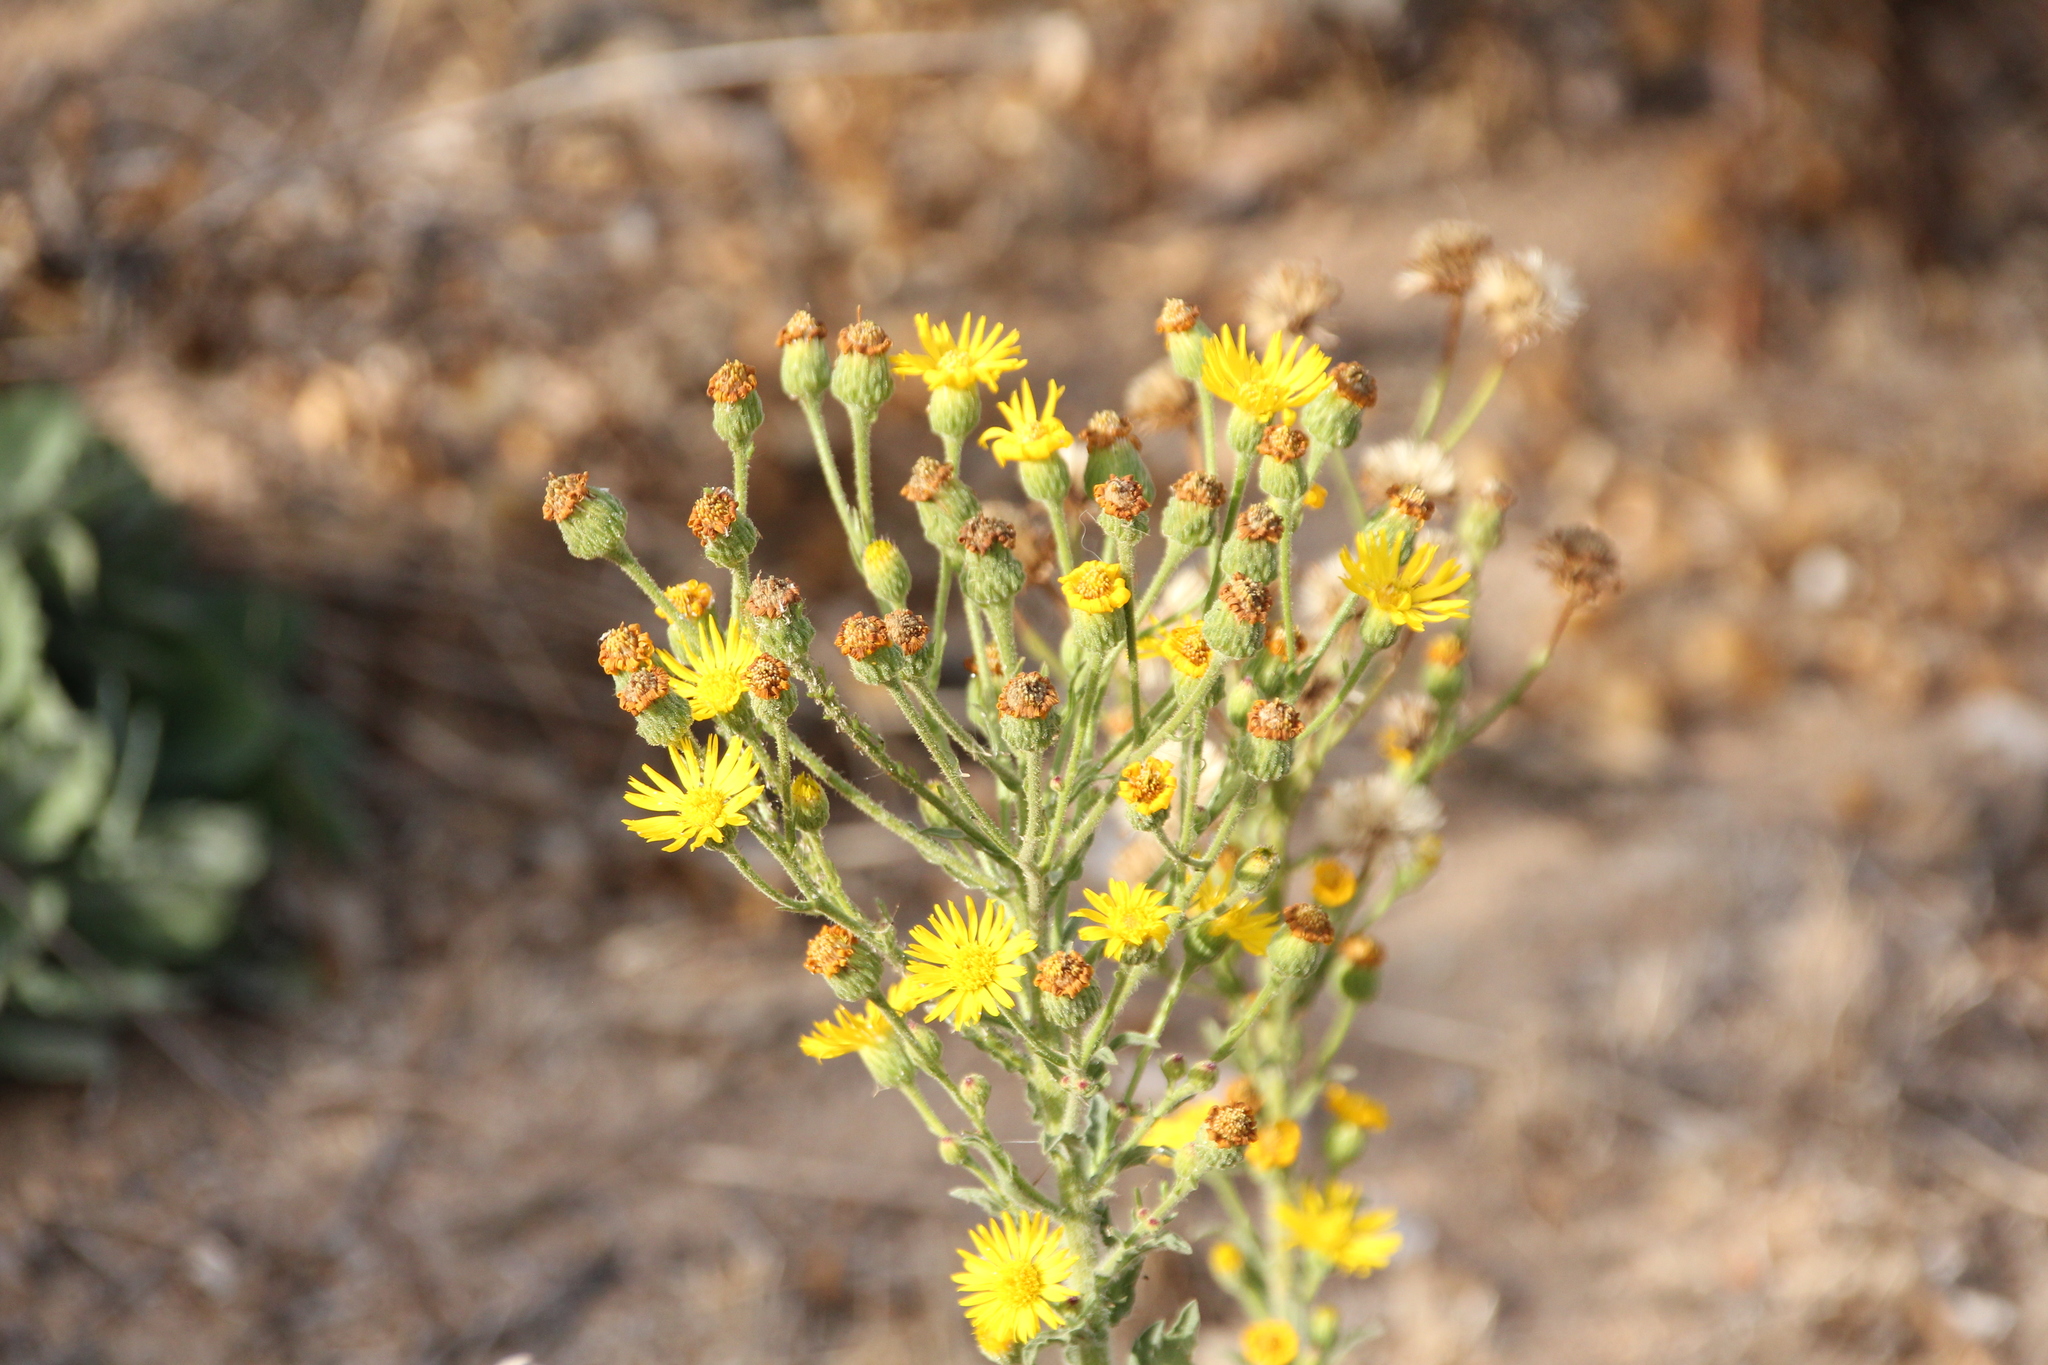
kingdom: Plantae
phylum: Tracheophyta
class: Magnoliopsida
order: Asterales
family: Asteraceae
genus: Heterotheca
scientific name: Heterotheca grandiflora
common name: Telegraphweed
